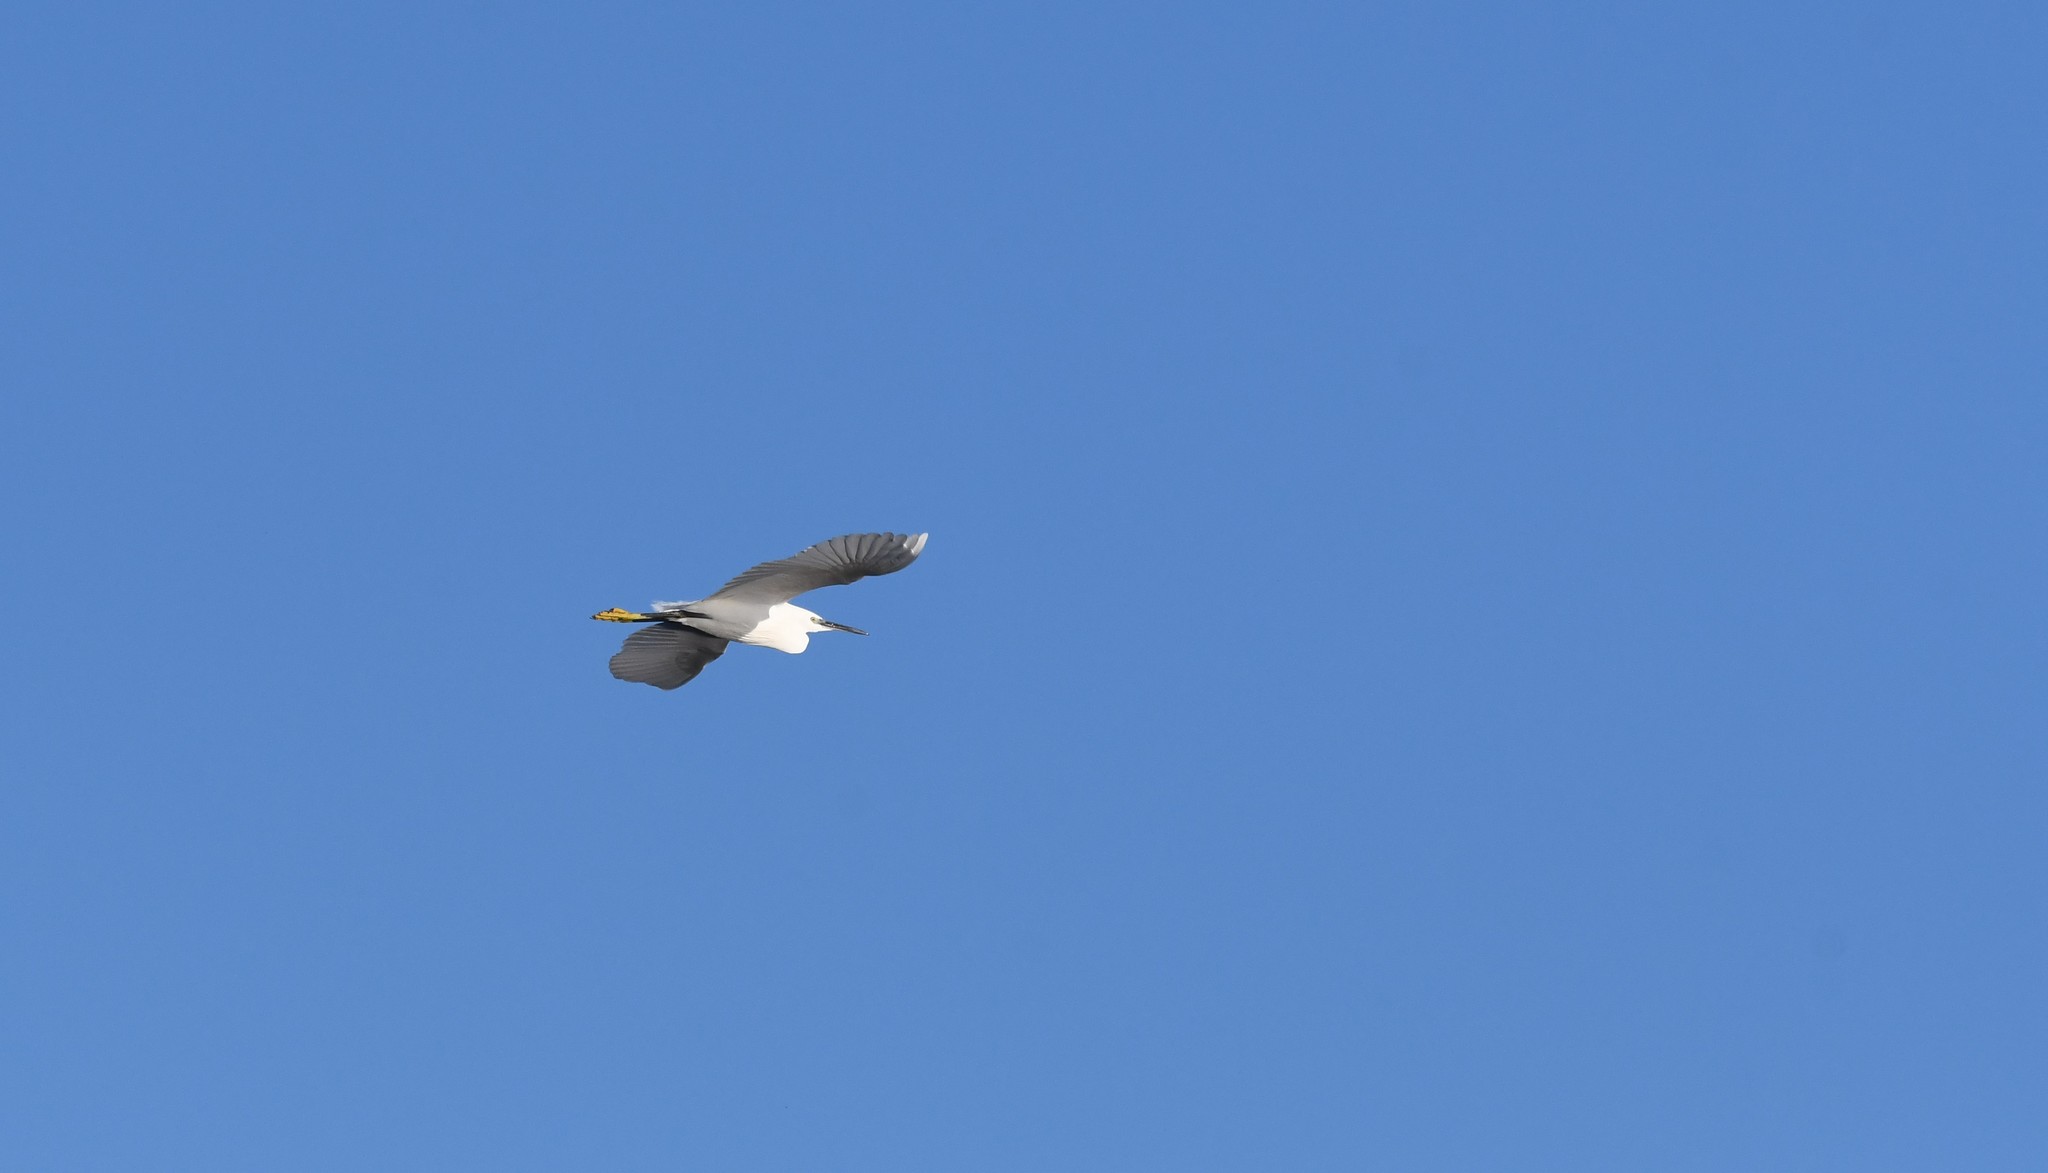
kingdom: Animalia
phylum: Chordata
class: Aves
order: Pelecaniformes
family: Ardeidae
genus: Egretta
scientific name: Egretta garzetta
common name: Little egret
